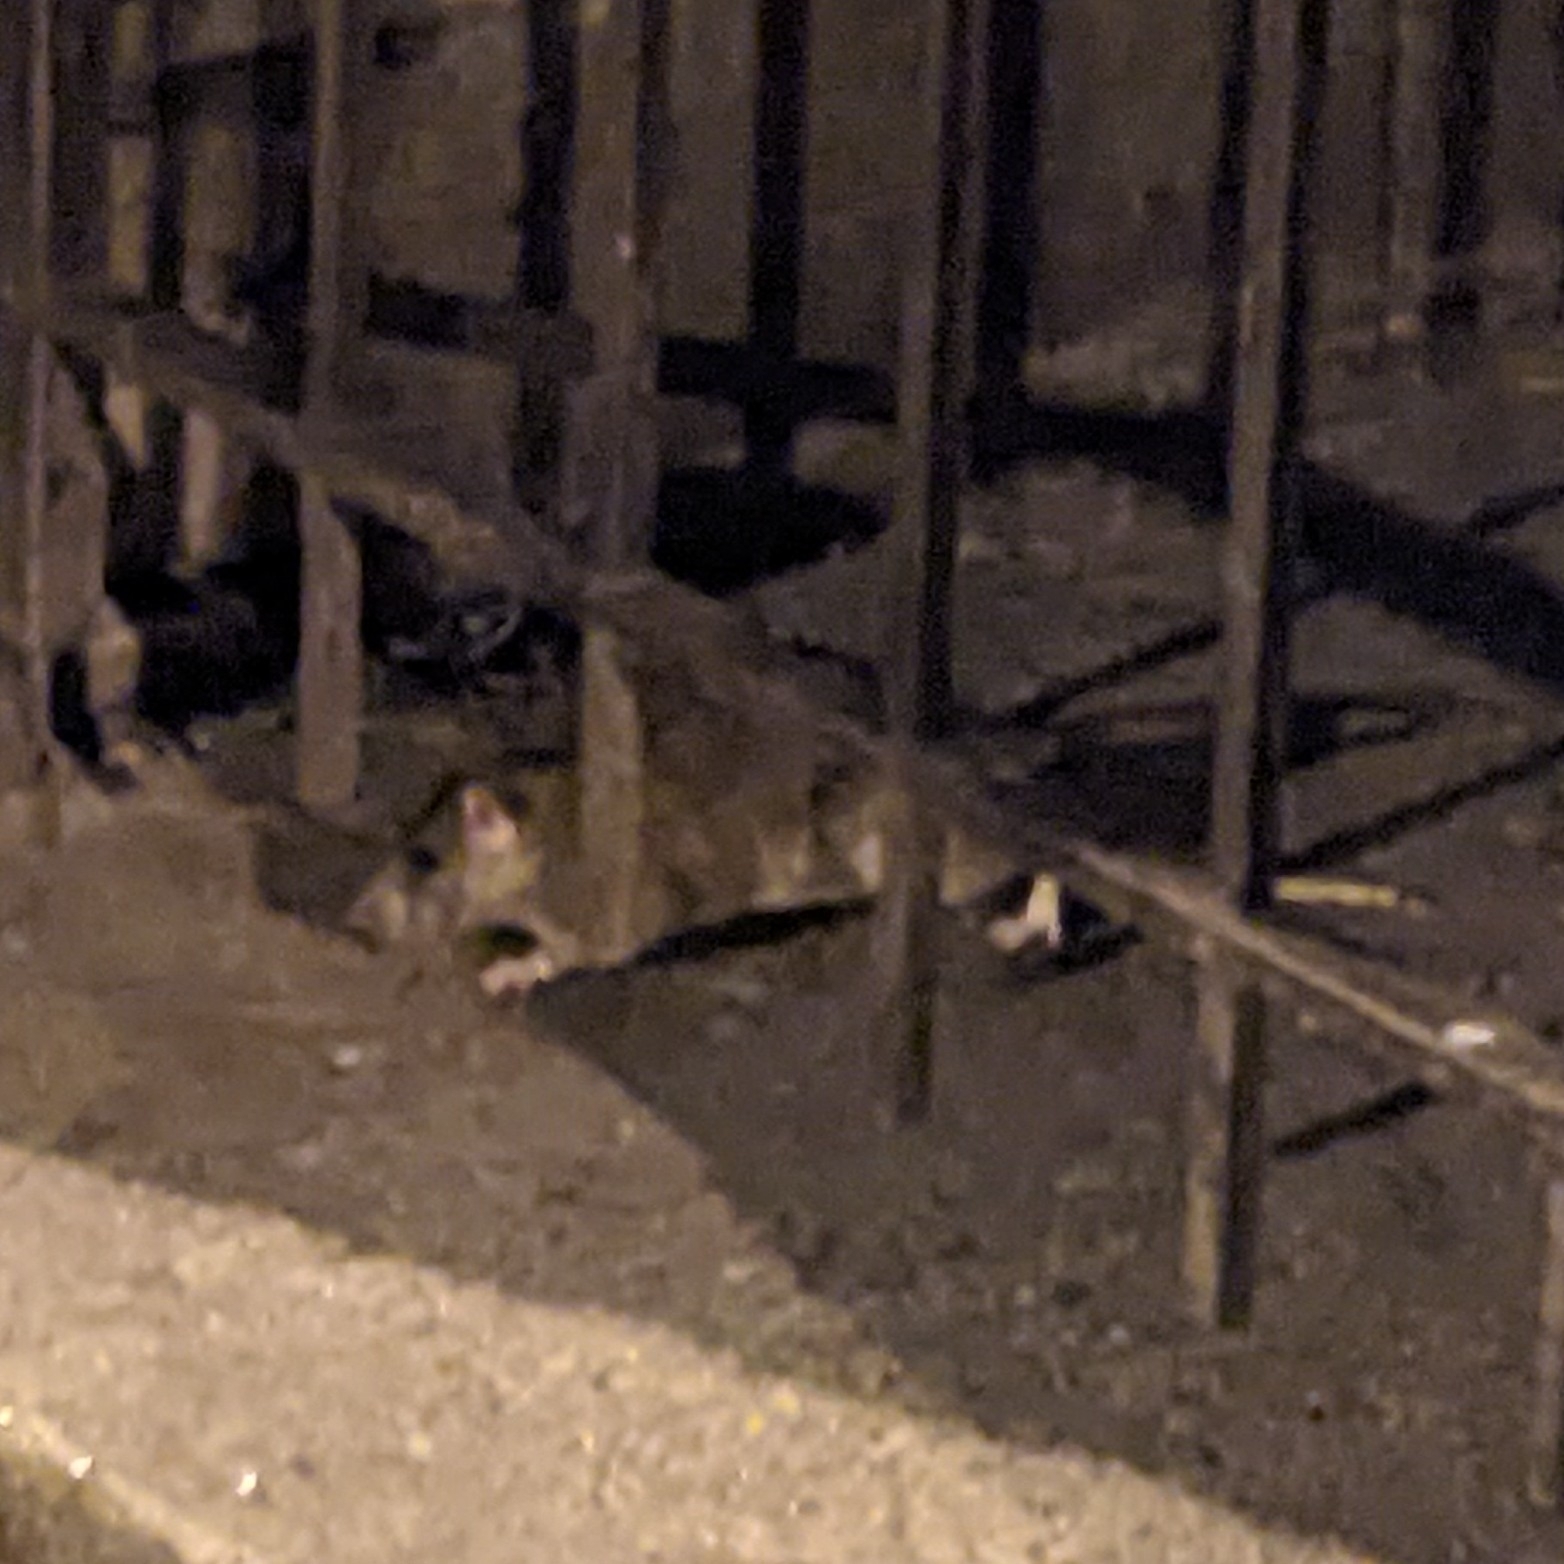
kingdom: Animalia
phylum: Chordata
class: Mammalia
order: Rodentia
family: Muridae
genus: Rattus
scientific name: Rattus norvegicus
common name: Brown rat
